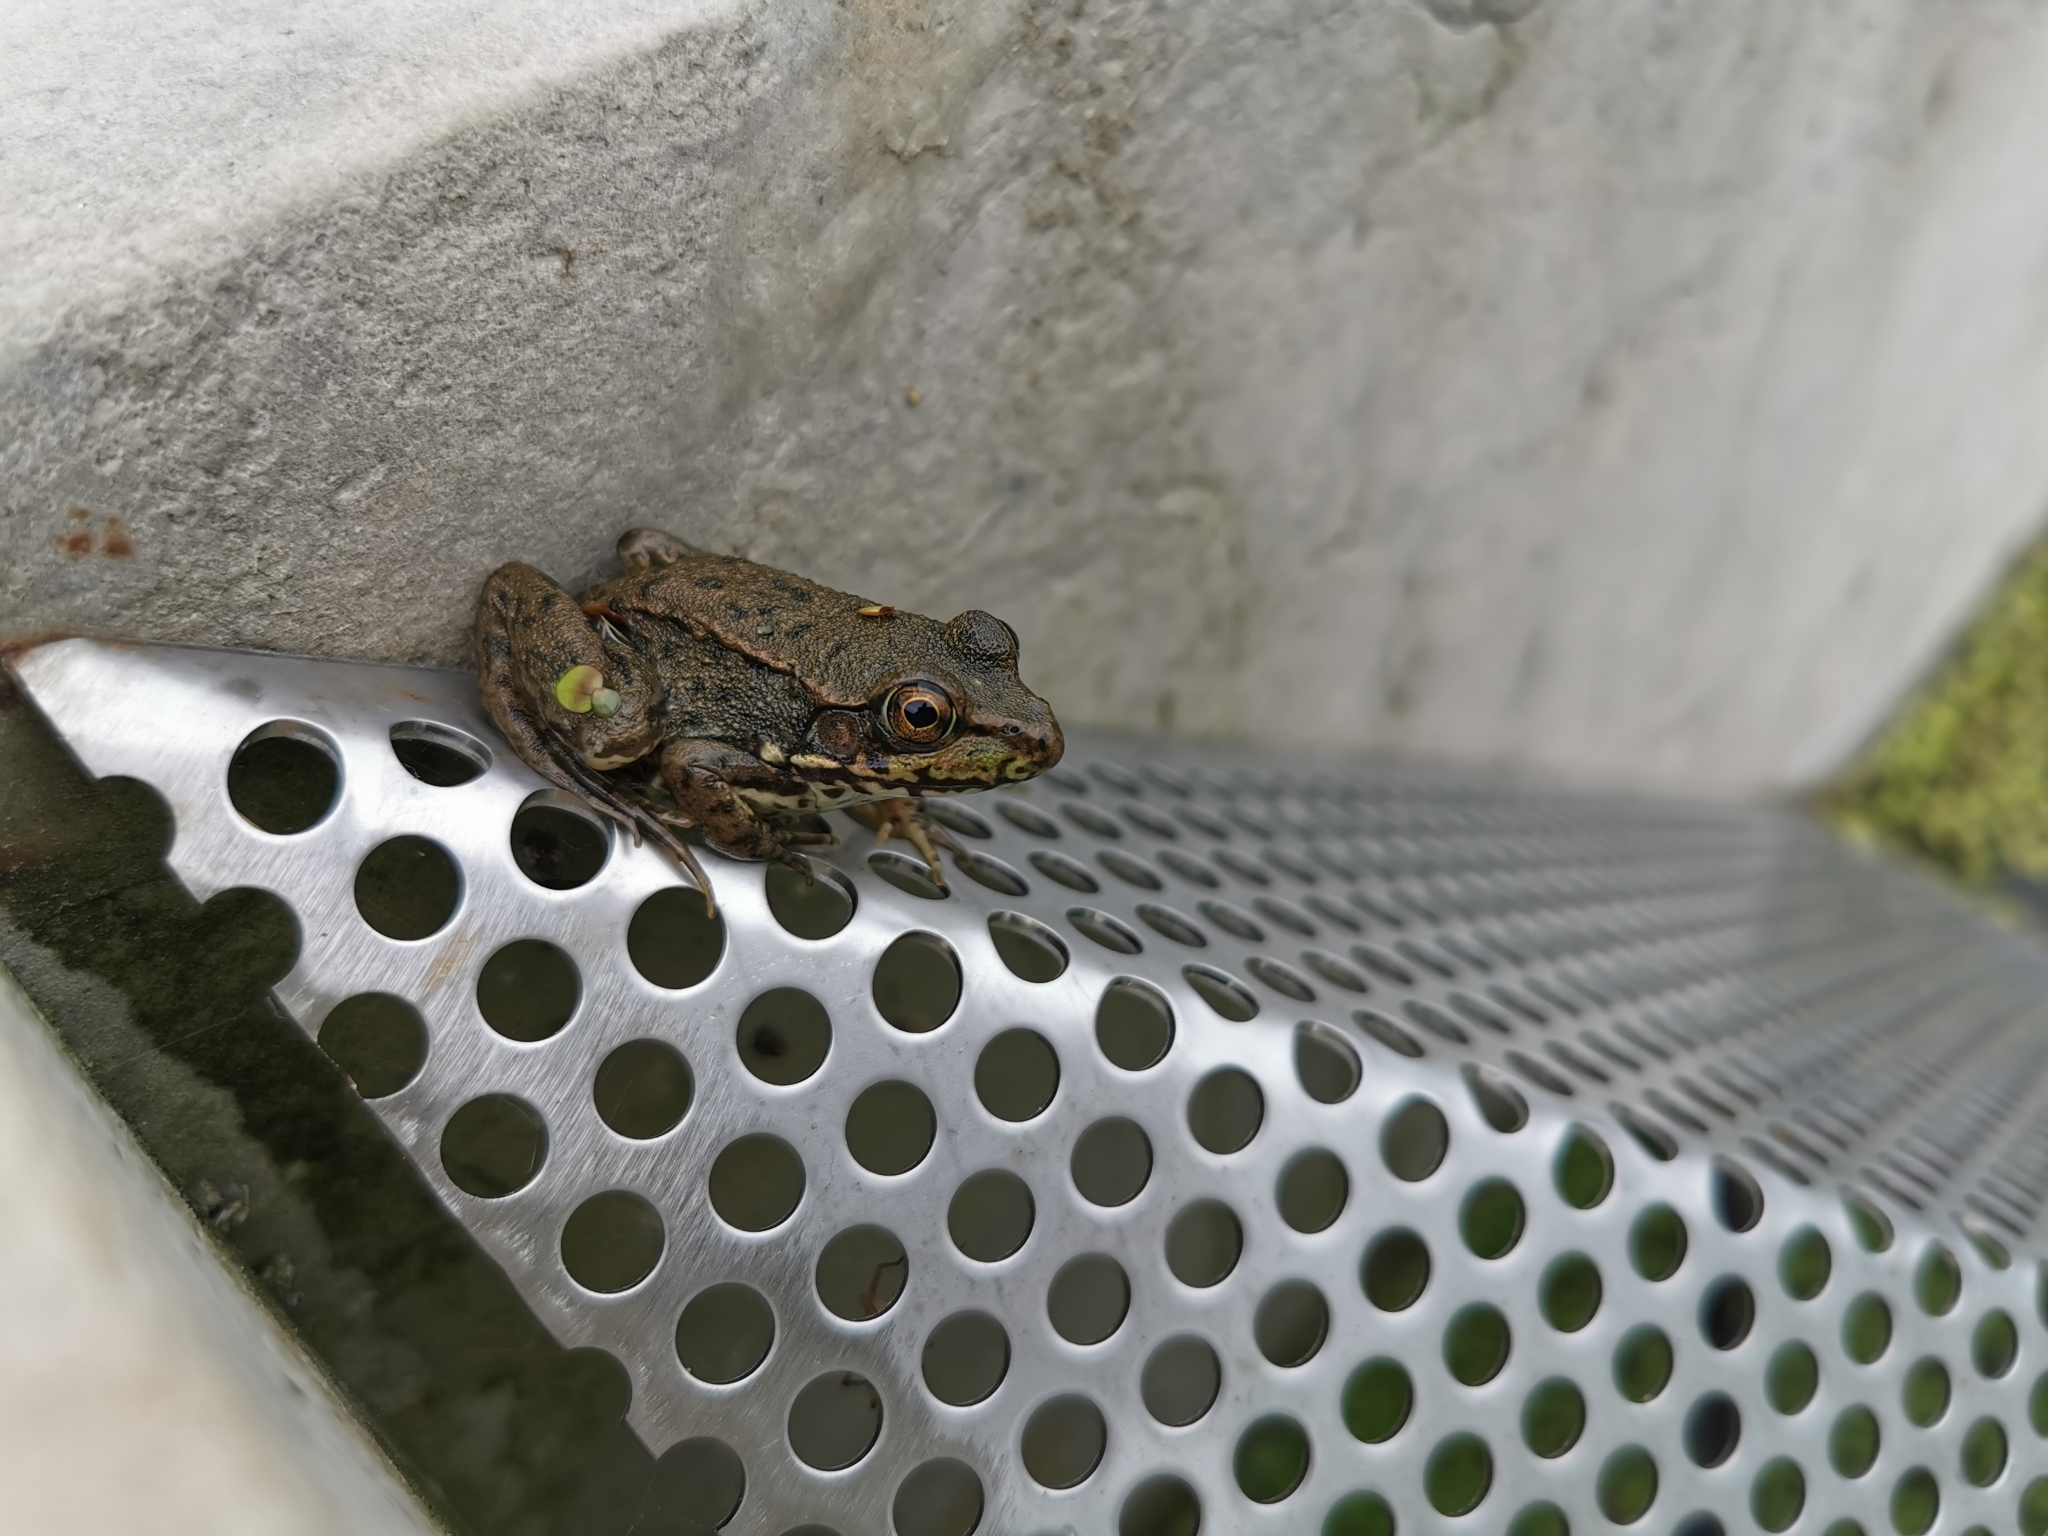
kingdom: Animalia
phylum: Chordata
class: Amphibia
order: Anura
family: Ranidae
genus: Lithobates
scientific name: Lithobates clamitans
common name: Green frog
